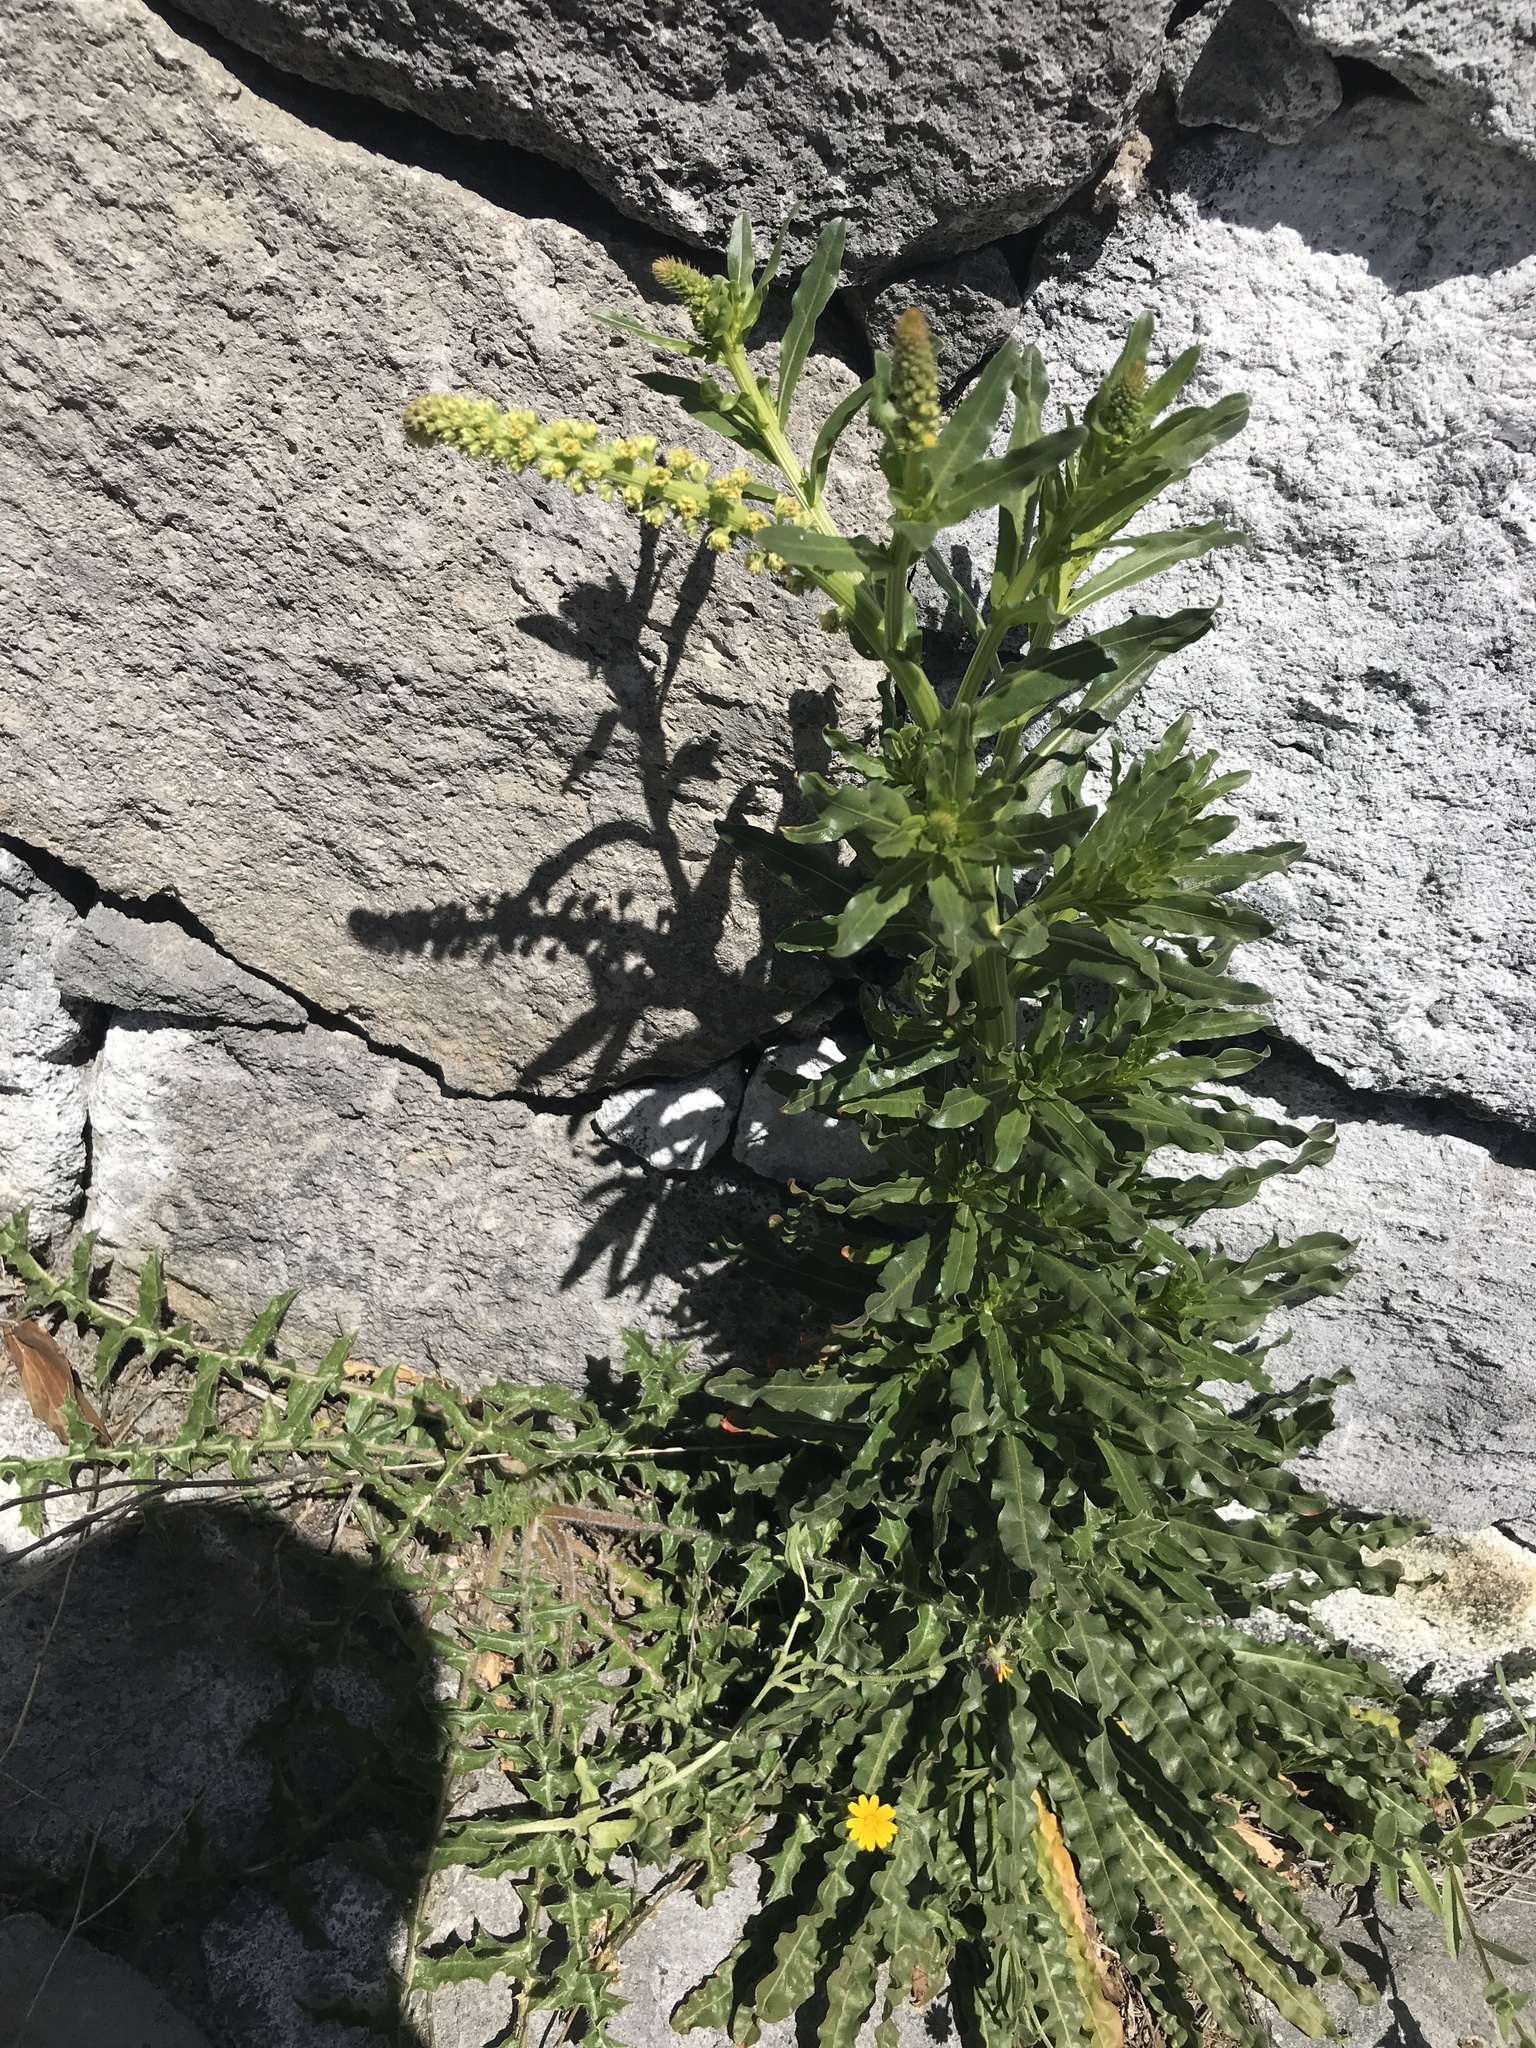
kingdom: Plantae
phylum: Tracheophyta
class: Magnoliopsida
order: Brassicales
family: Resedaceae
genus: Reseda
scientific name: Reseda luteola
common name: Weld
